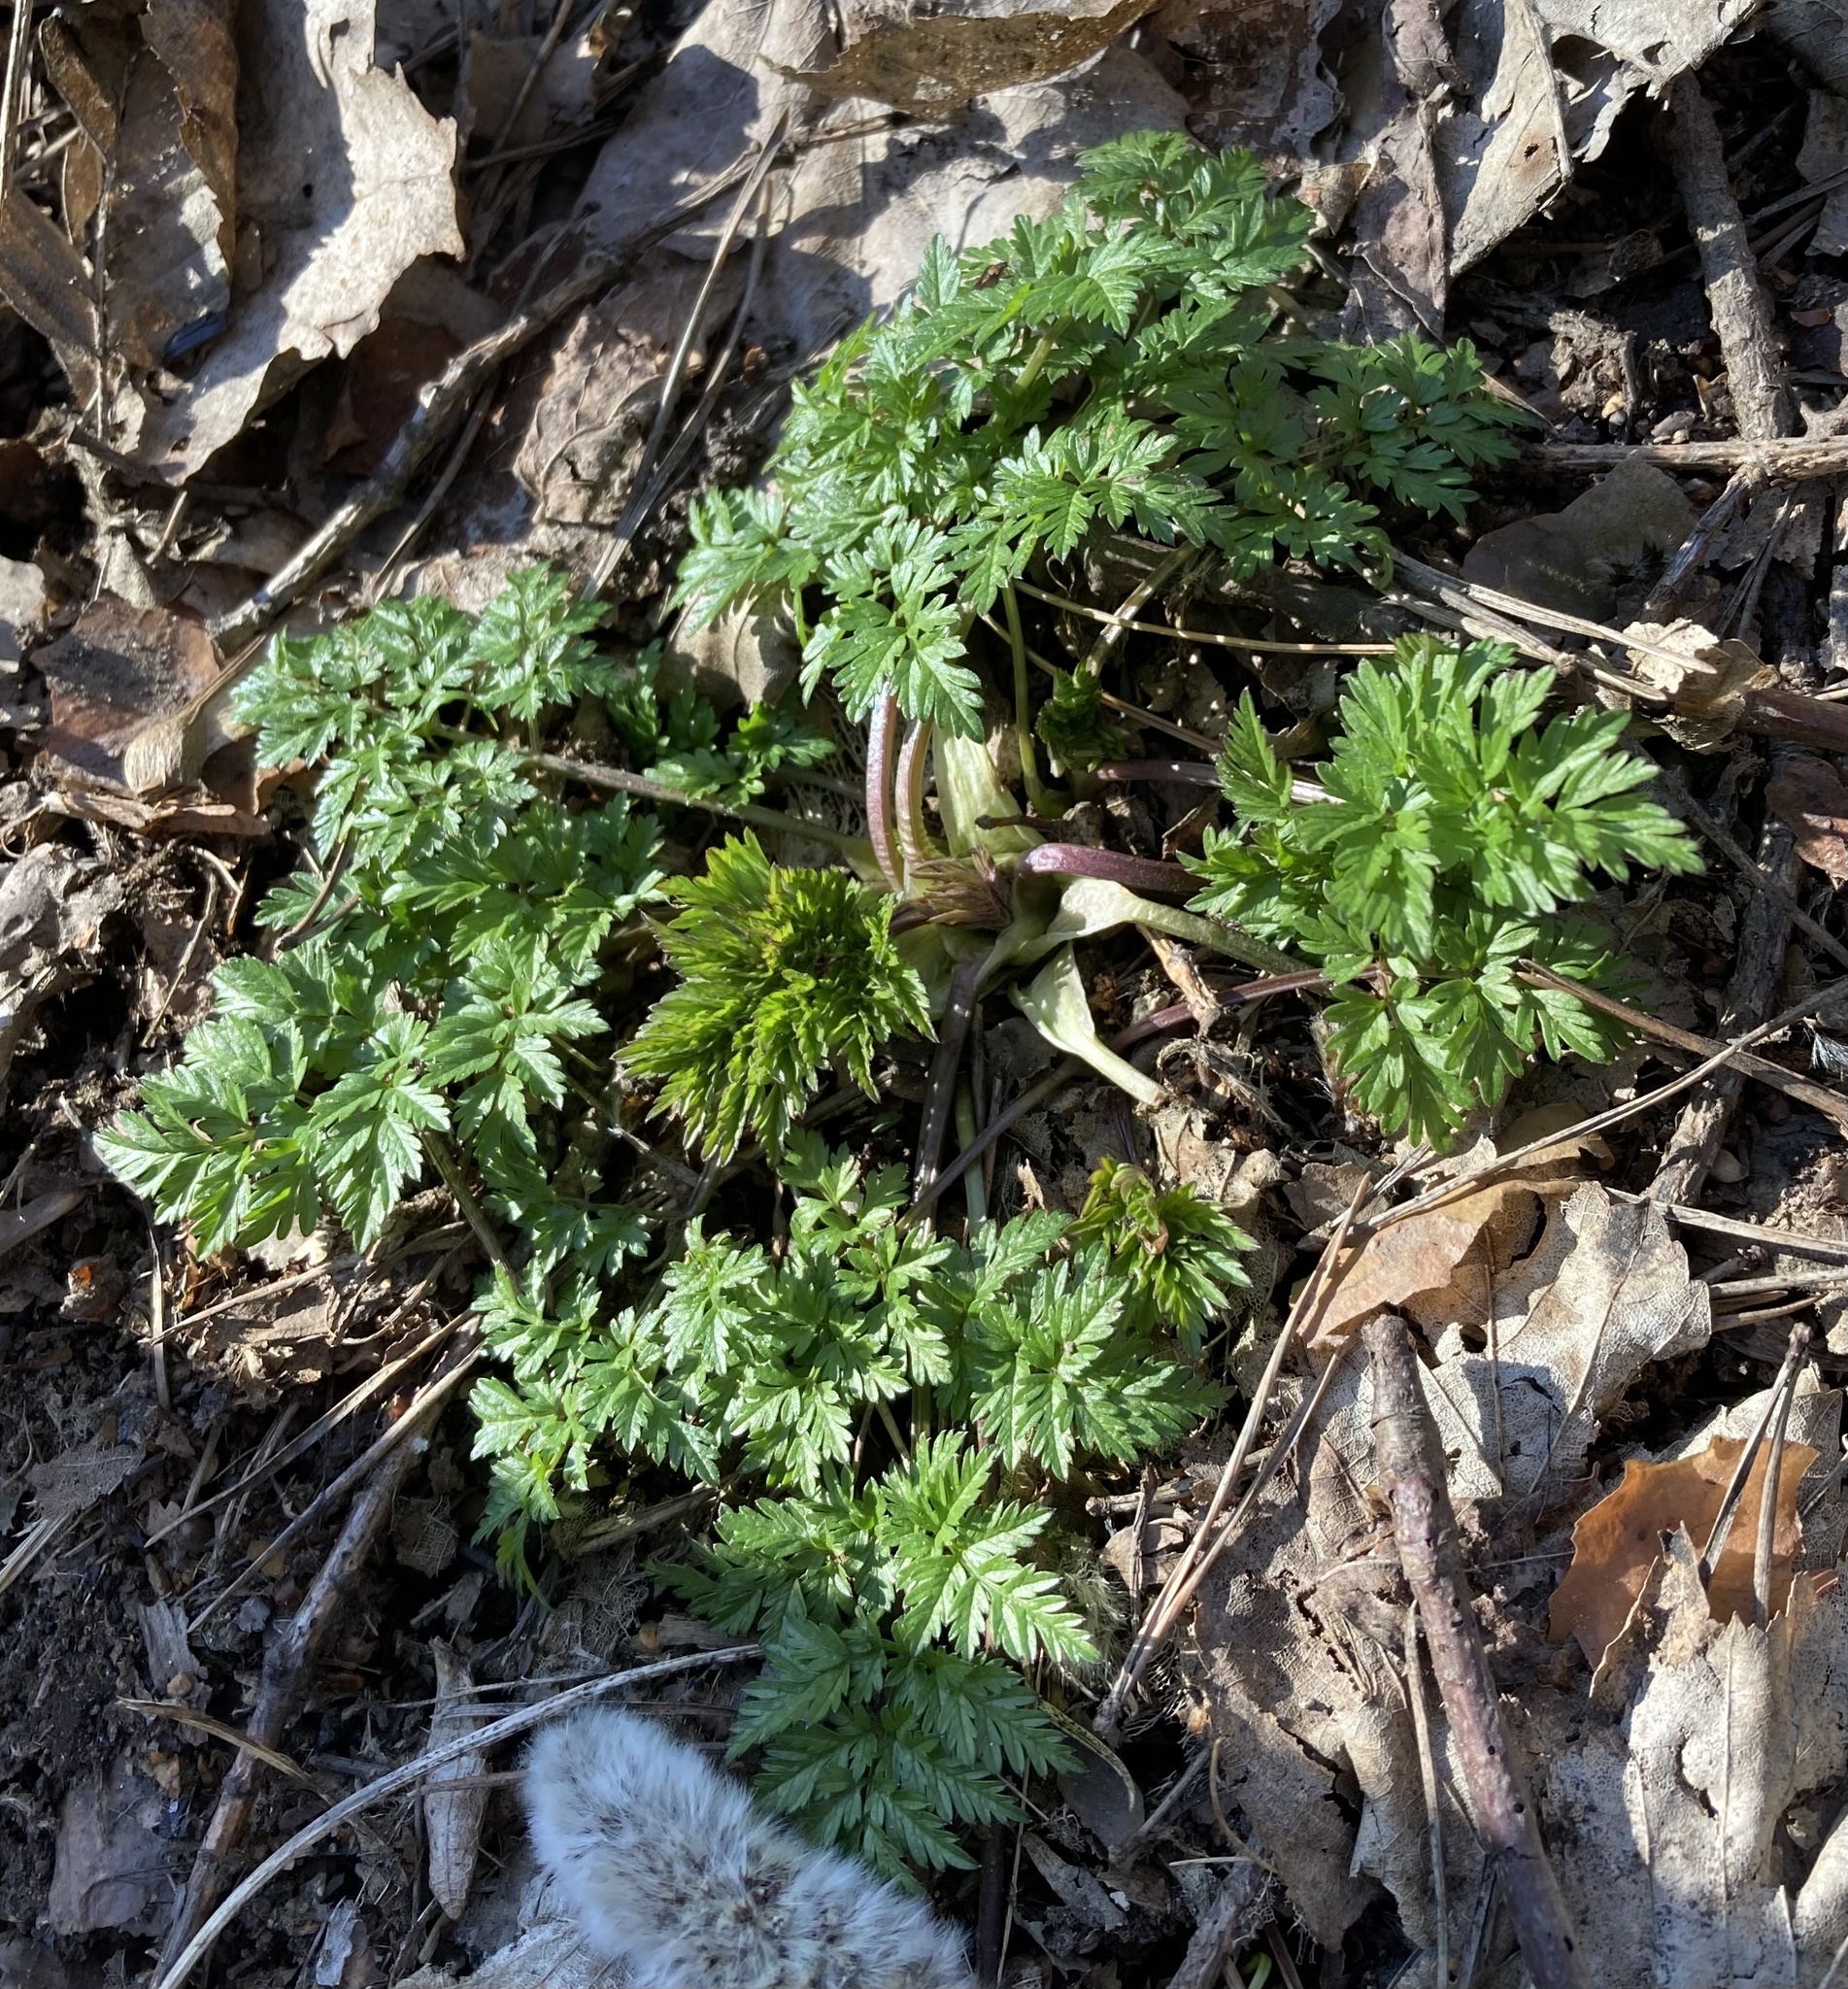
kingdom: Plantae
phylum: Tracheophyta
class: Magnoliopsida
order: Apiales
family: Apiaceae
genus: Anthriscus
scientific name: Anthriscus sylvestris
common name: Cow parsley
